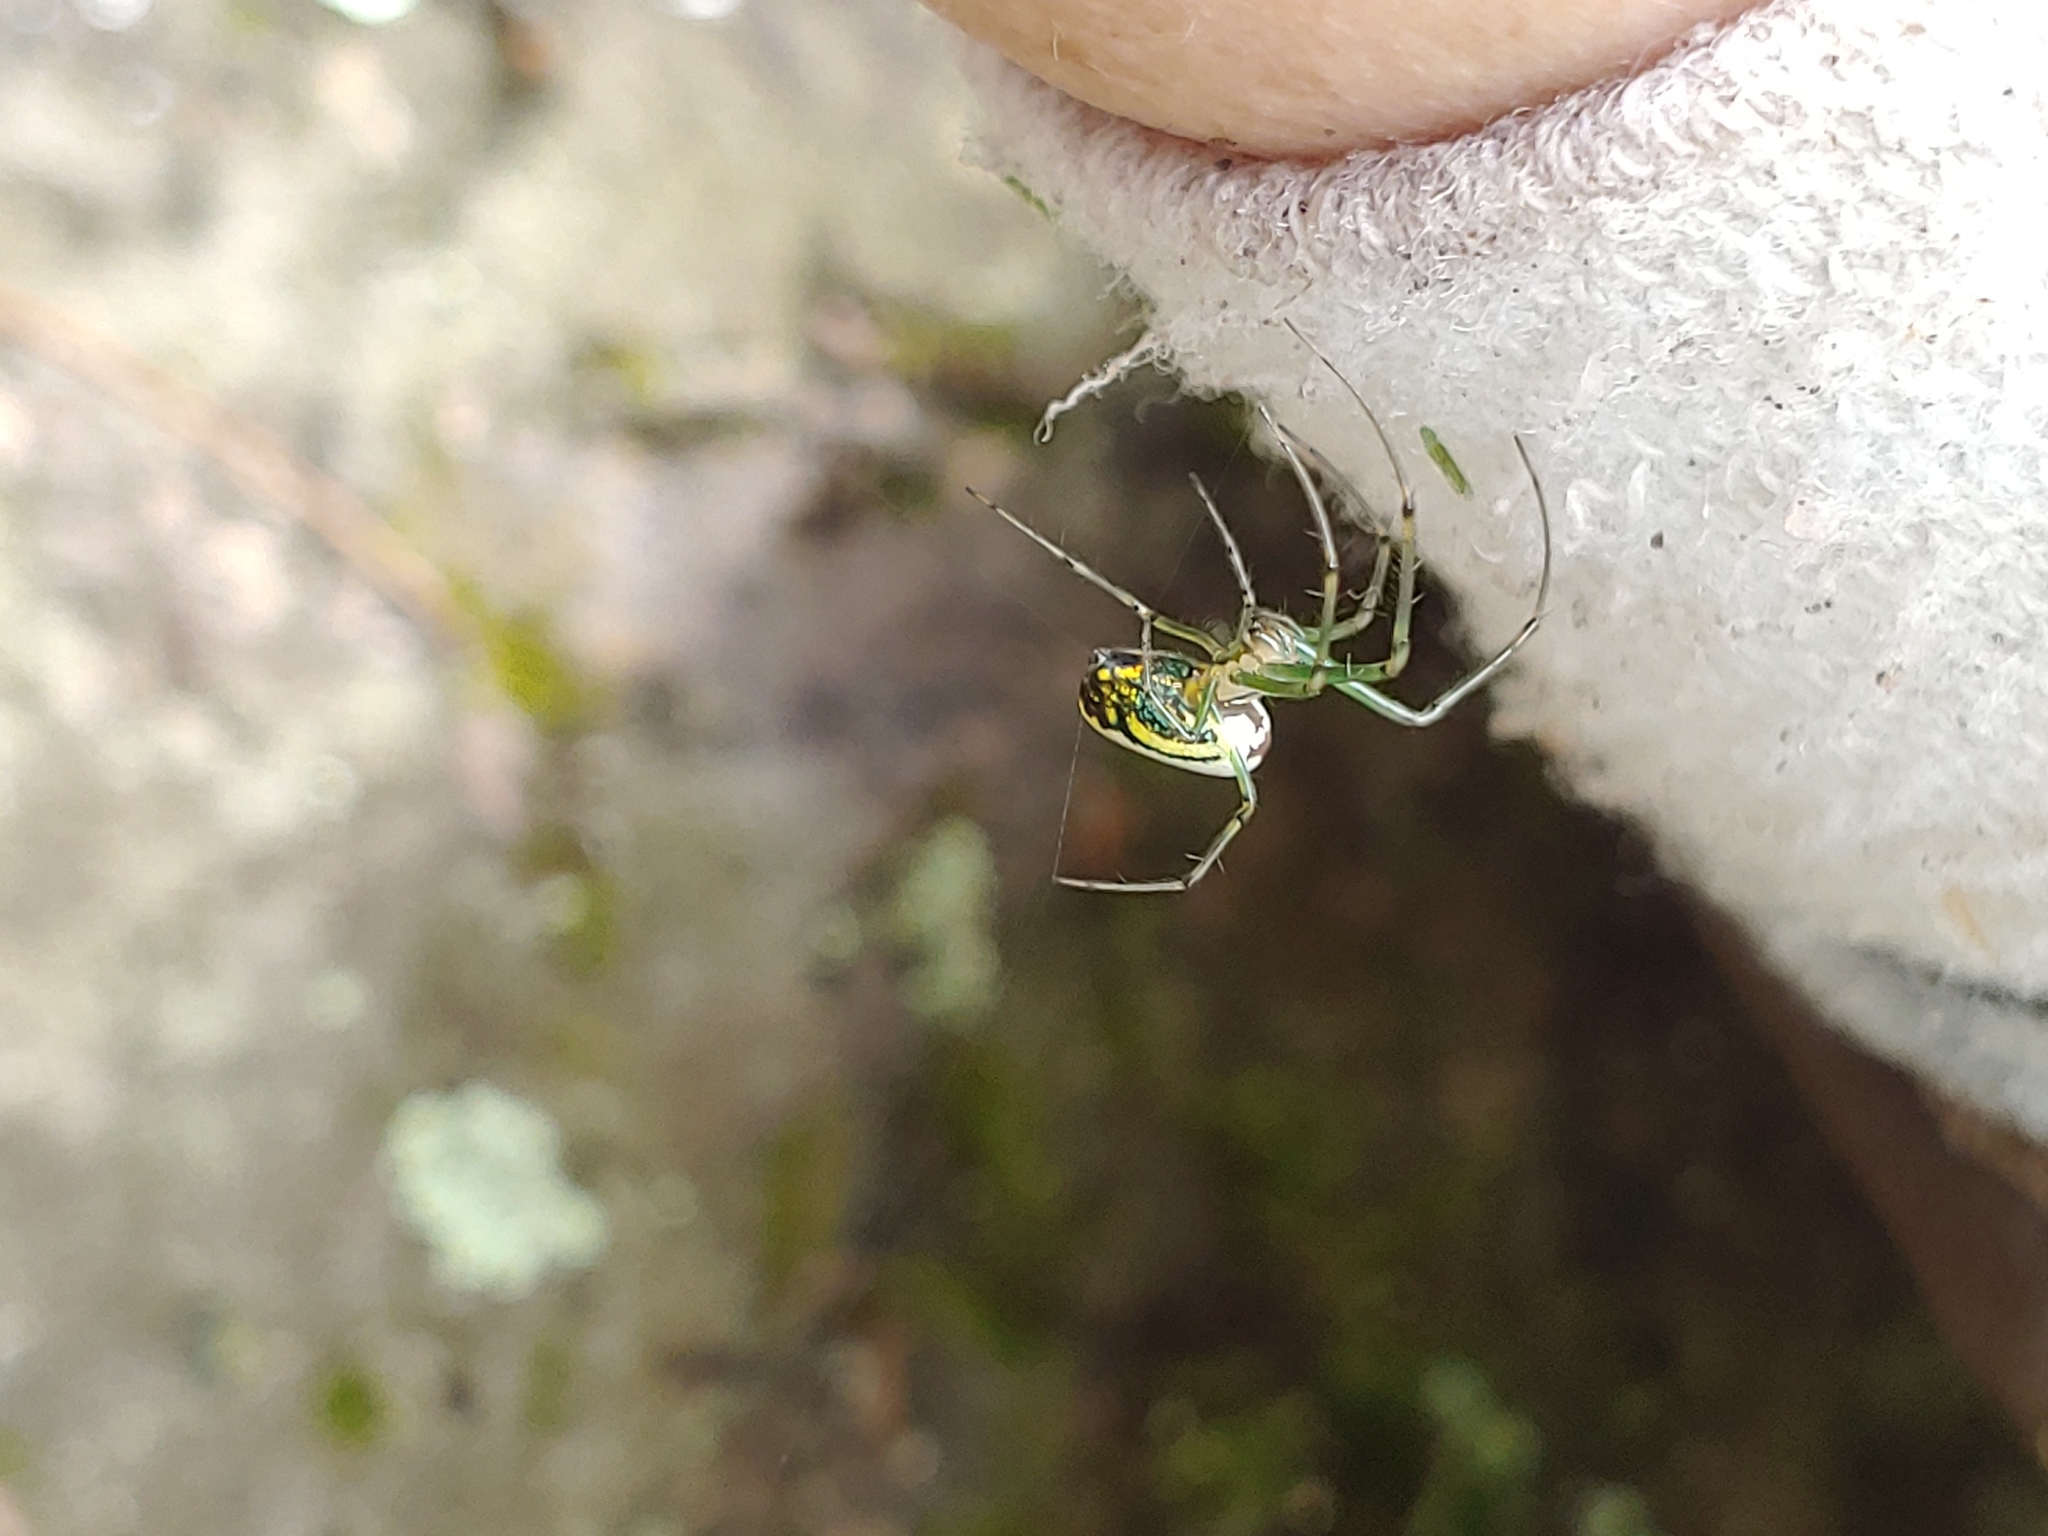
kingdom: Animalia
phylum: Arthropoda
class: Arachnida
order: Araneae
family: Tetragnathidae
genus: Leucauge
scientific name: Leucauge venusta
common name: Longjawed orb weavers
